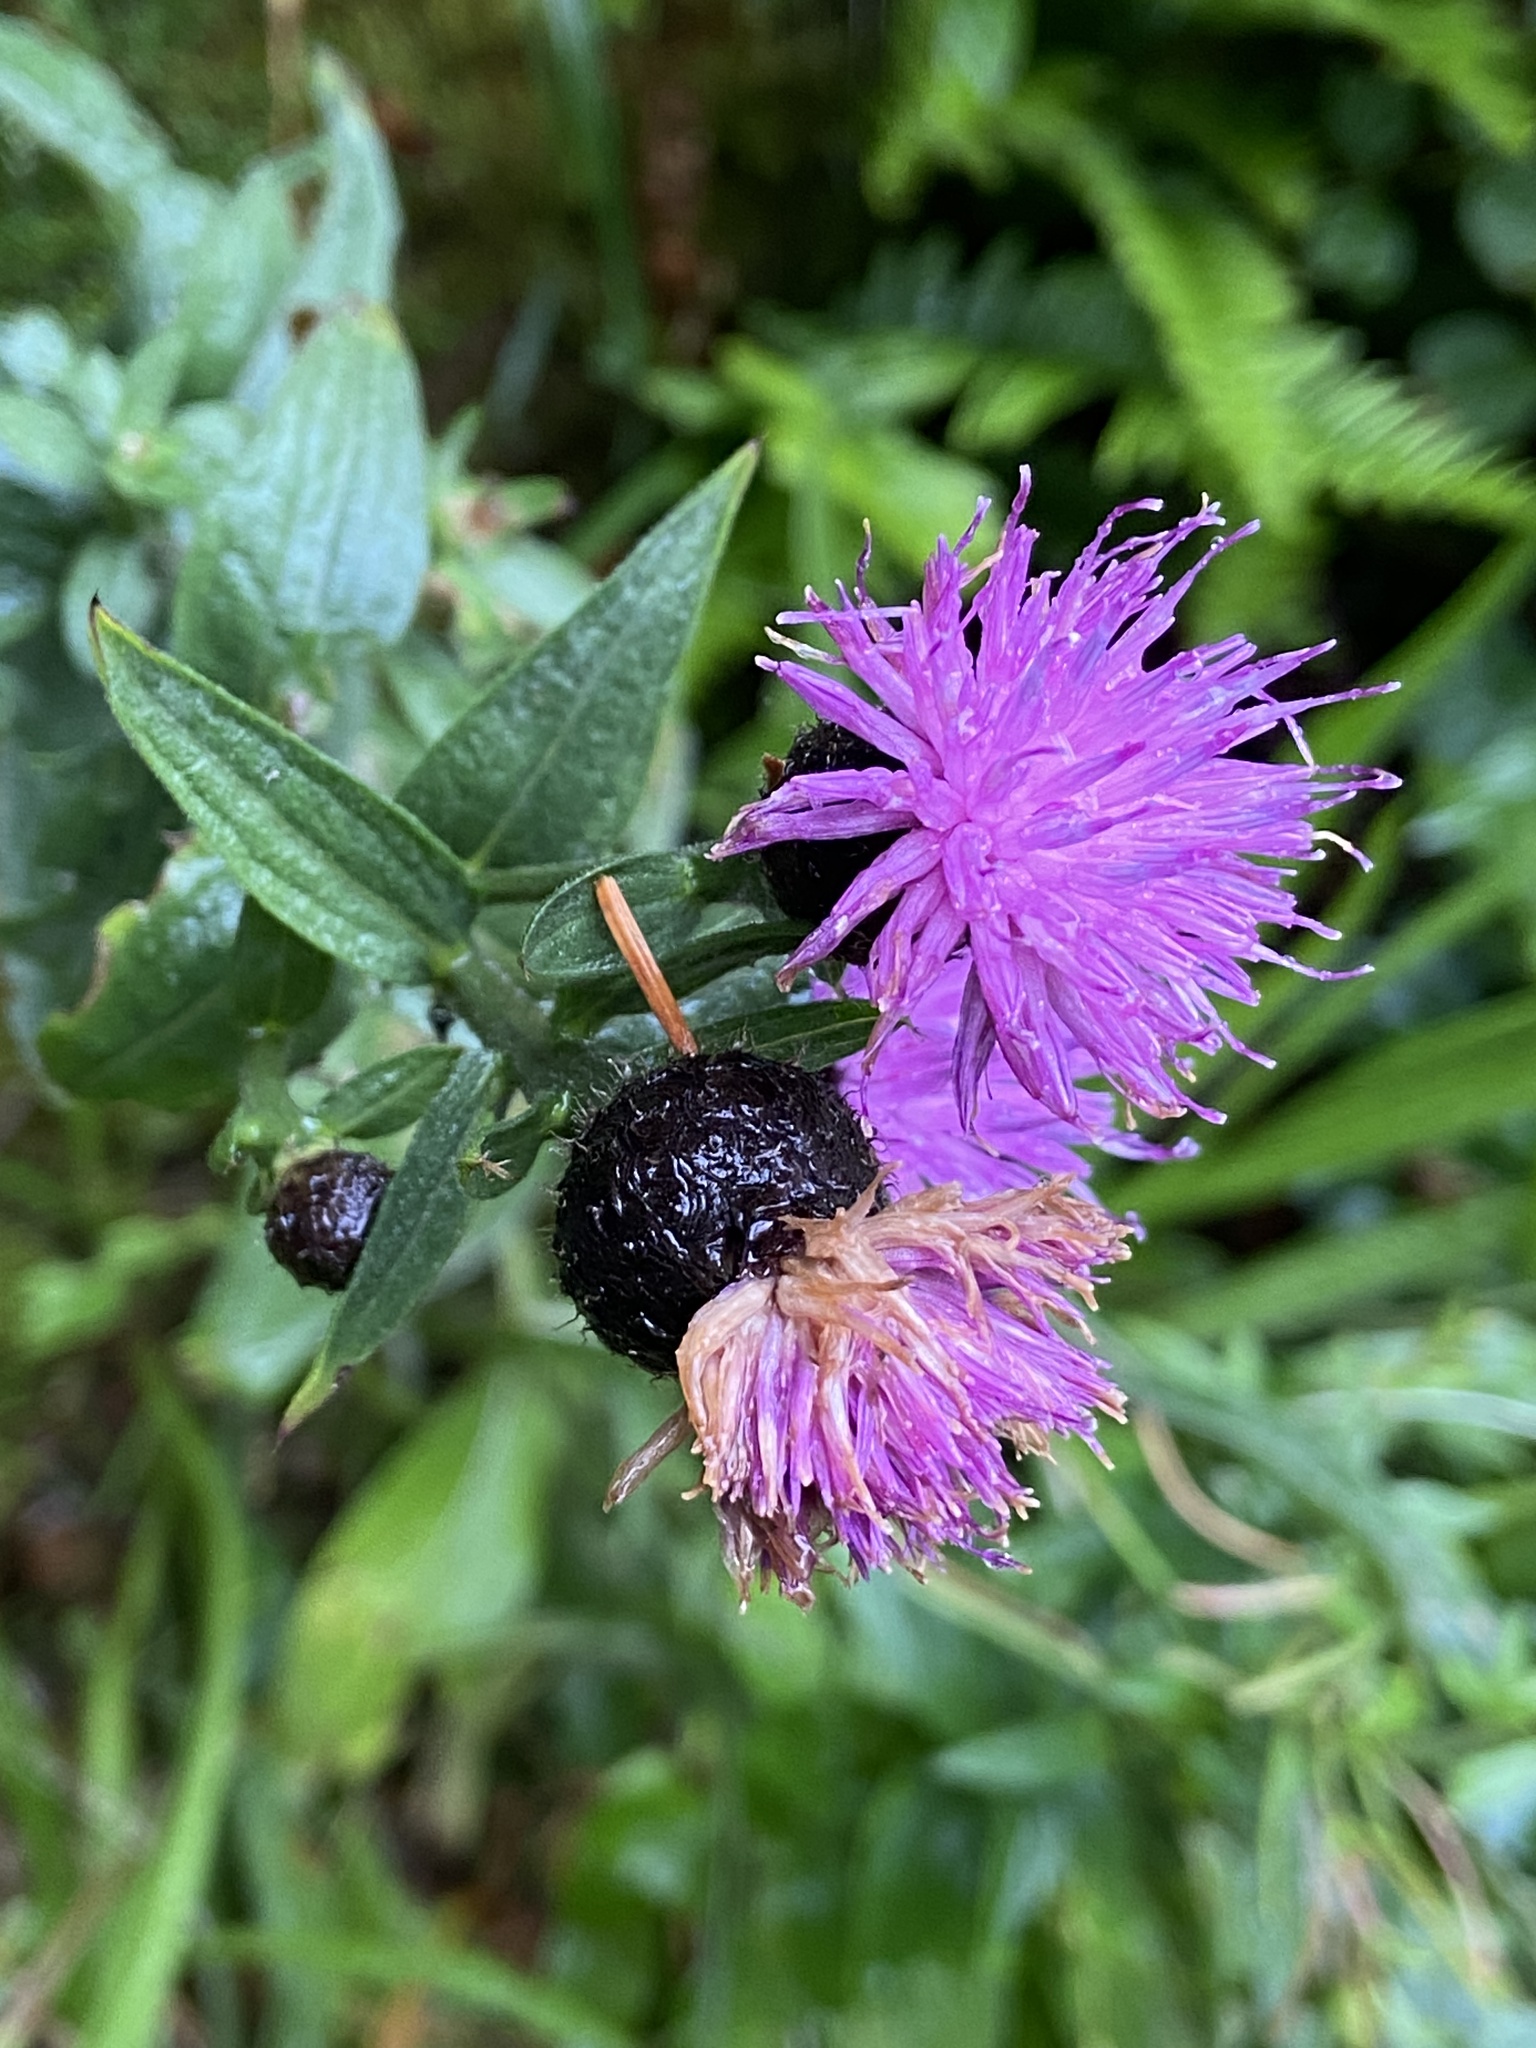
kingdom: Plantae
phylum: Tracheophyta
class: Magnoliopsida
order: Asterales
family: Asteraceae
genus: Centaurea
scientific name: Centaurea nigra
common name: Lesser knapweed
